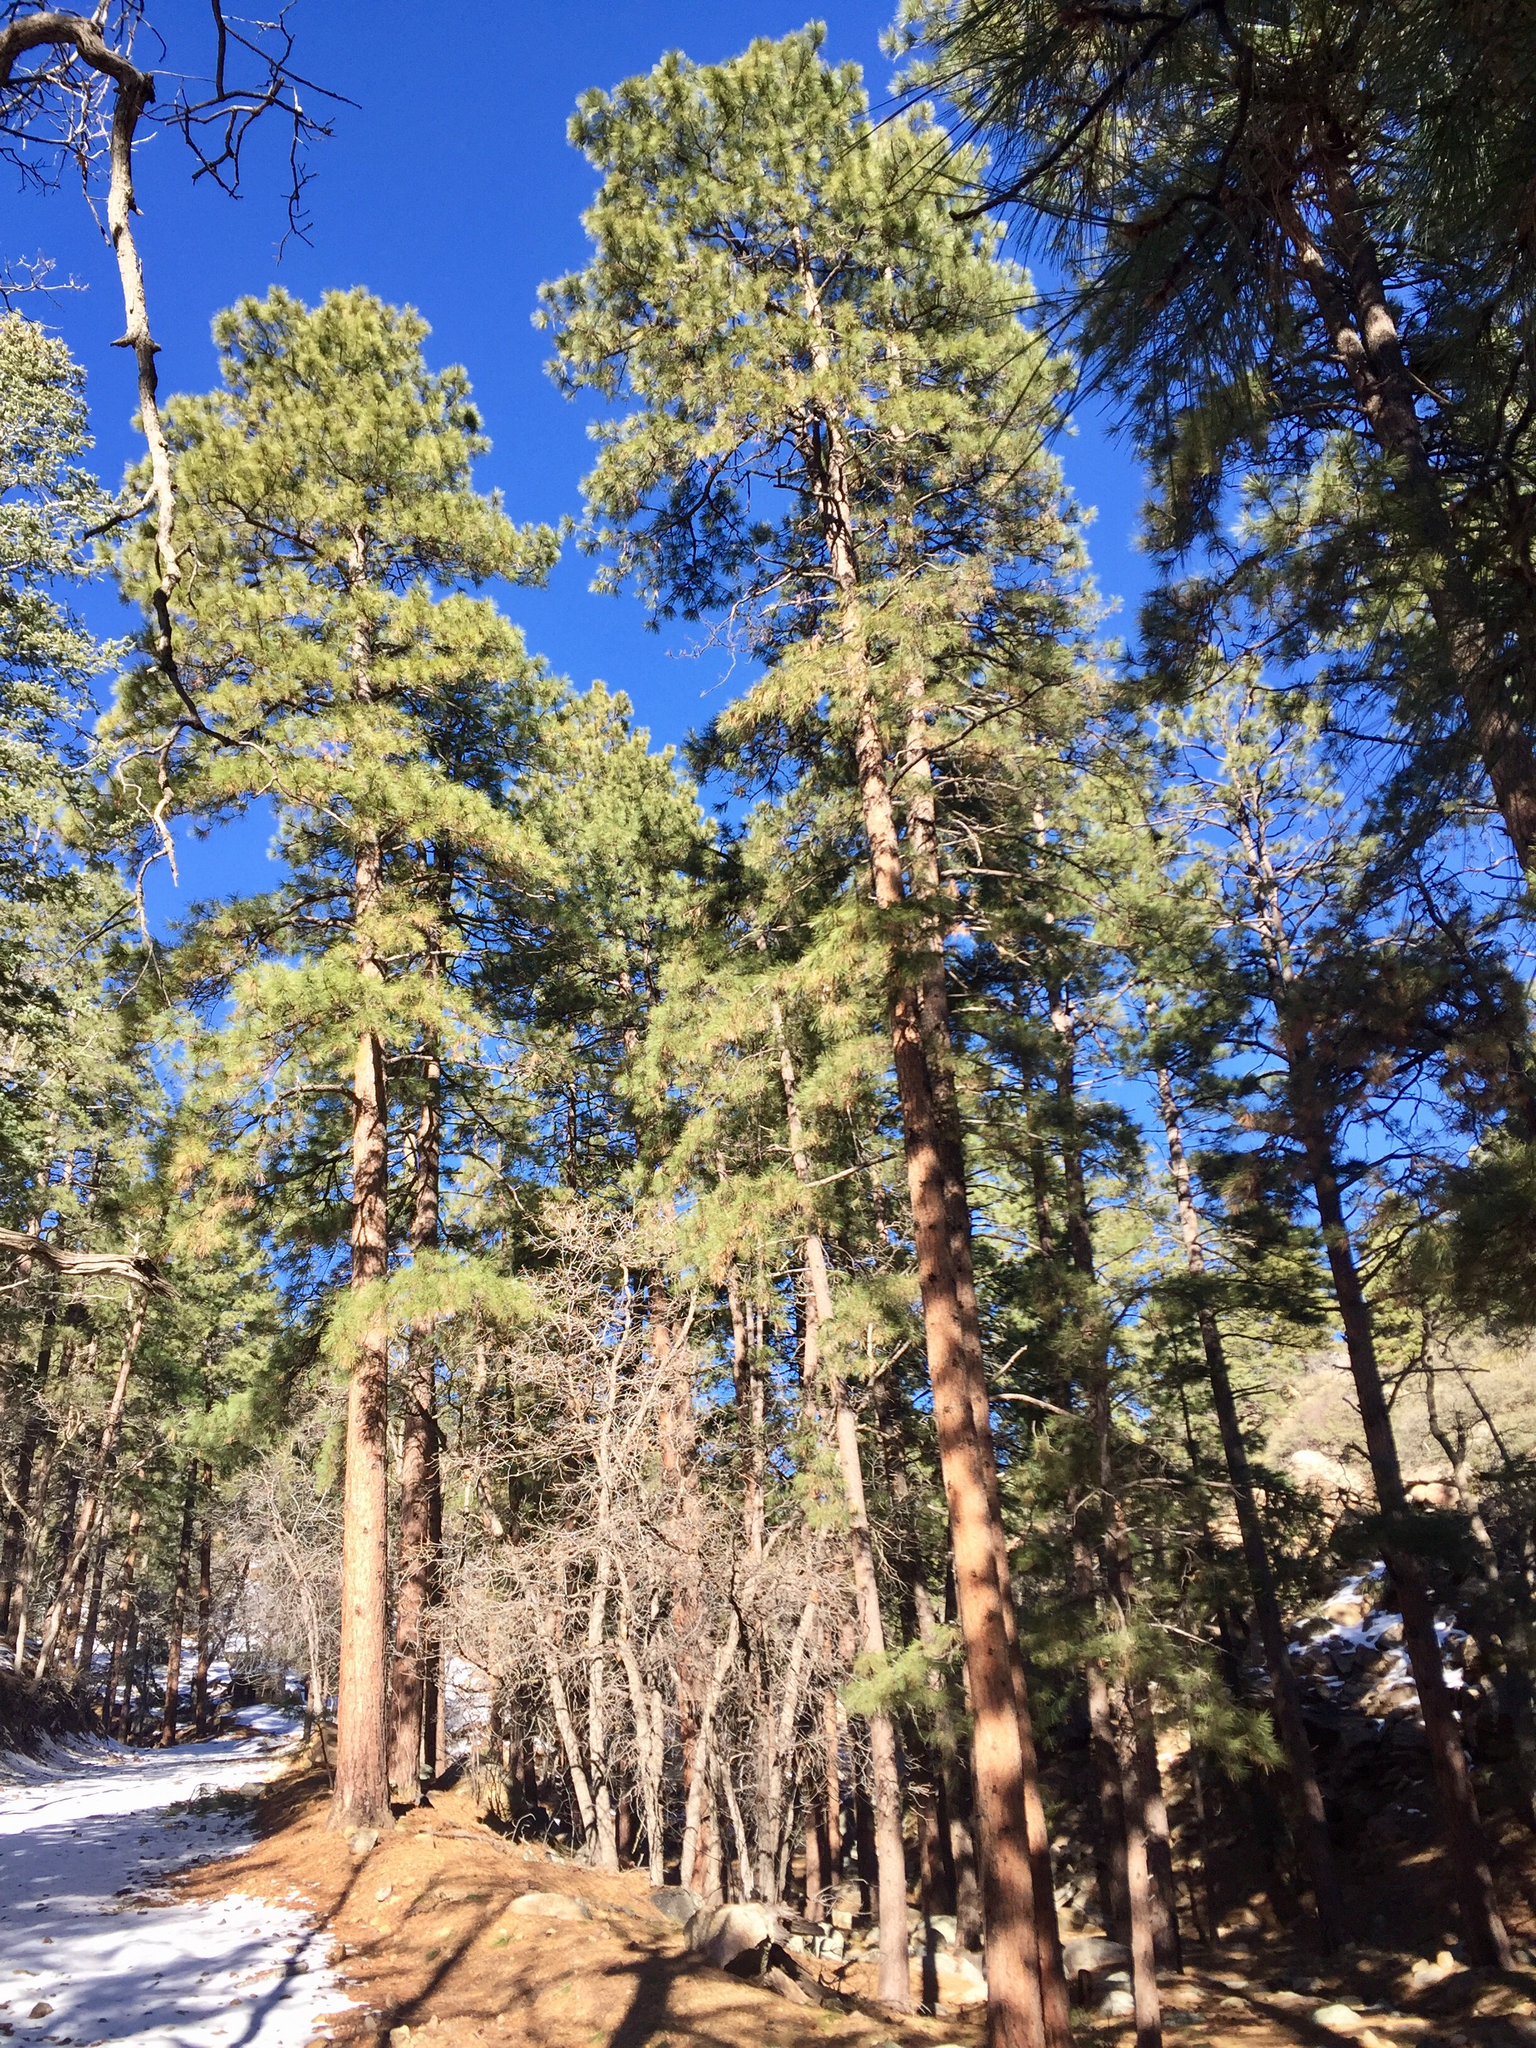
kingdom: Plantae
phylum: Tracheophyta
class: Pinopsida
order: Pinales
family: Pinaceae
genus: Pinus
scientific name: Pinus ponderosa
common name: Western yellow-pine
